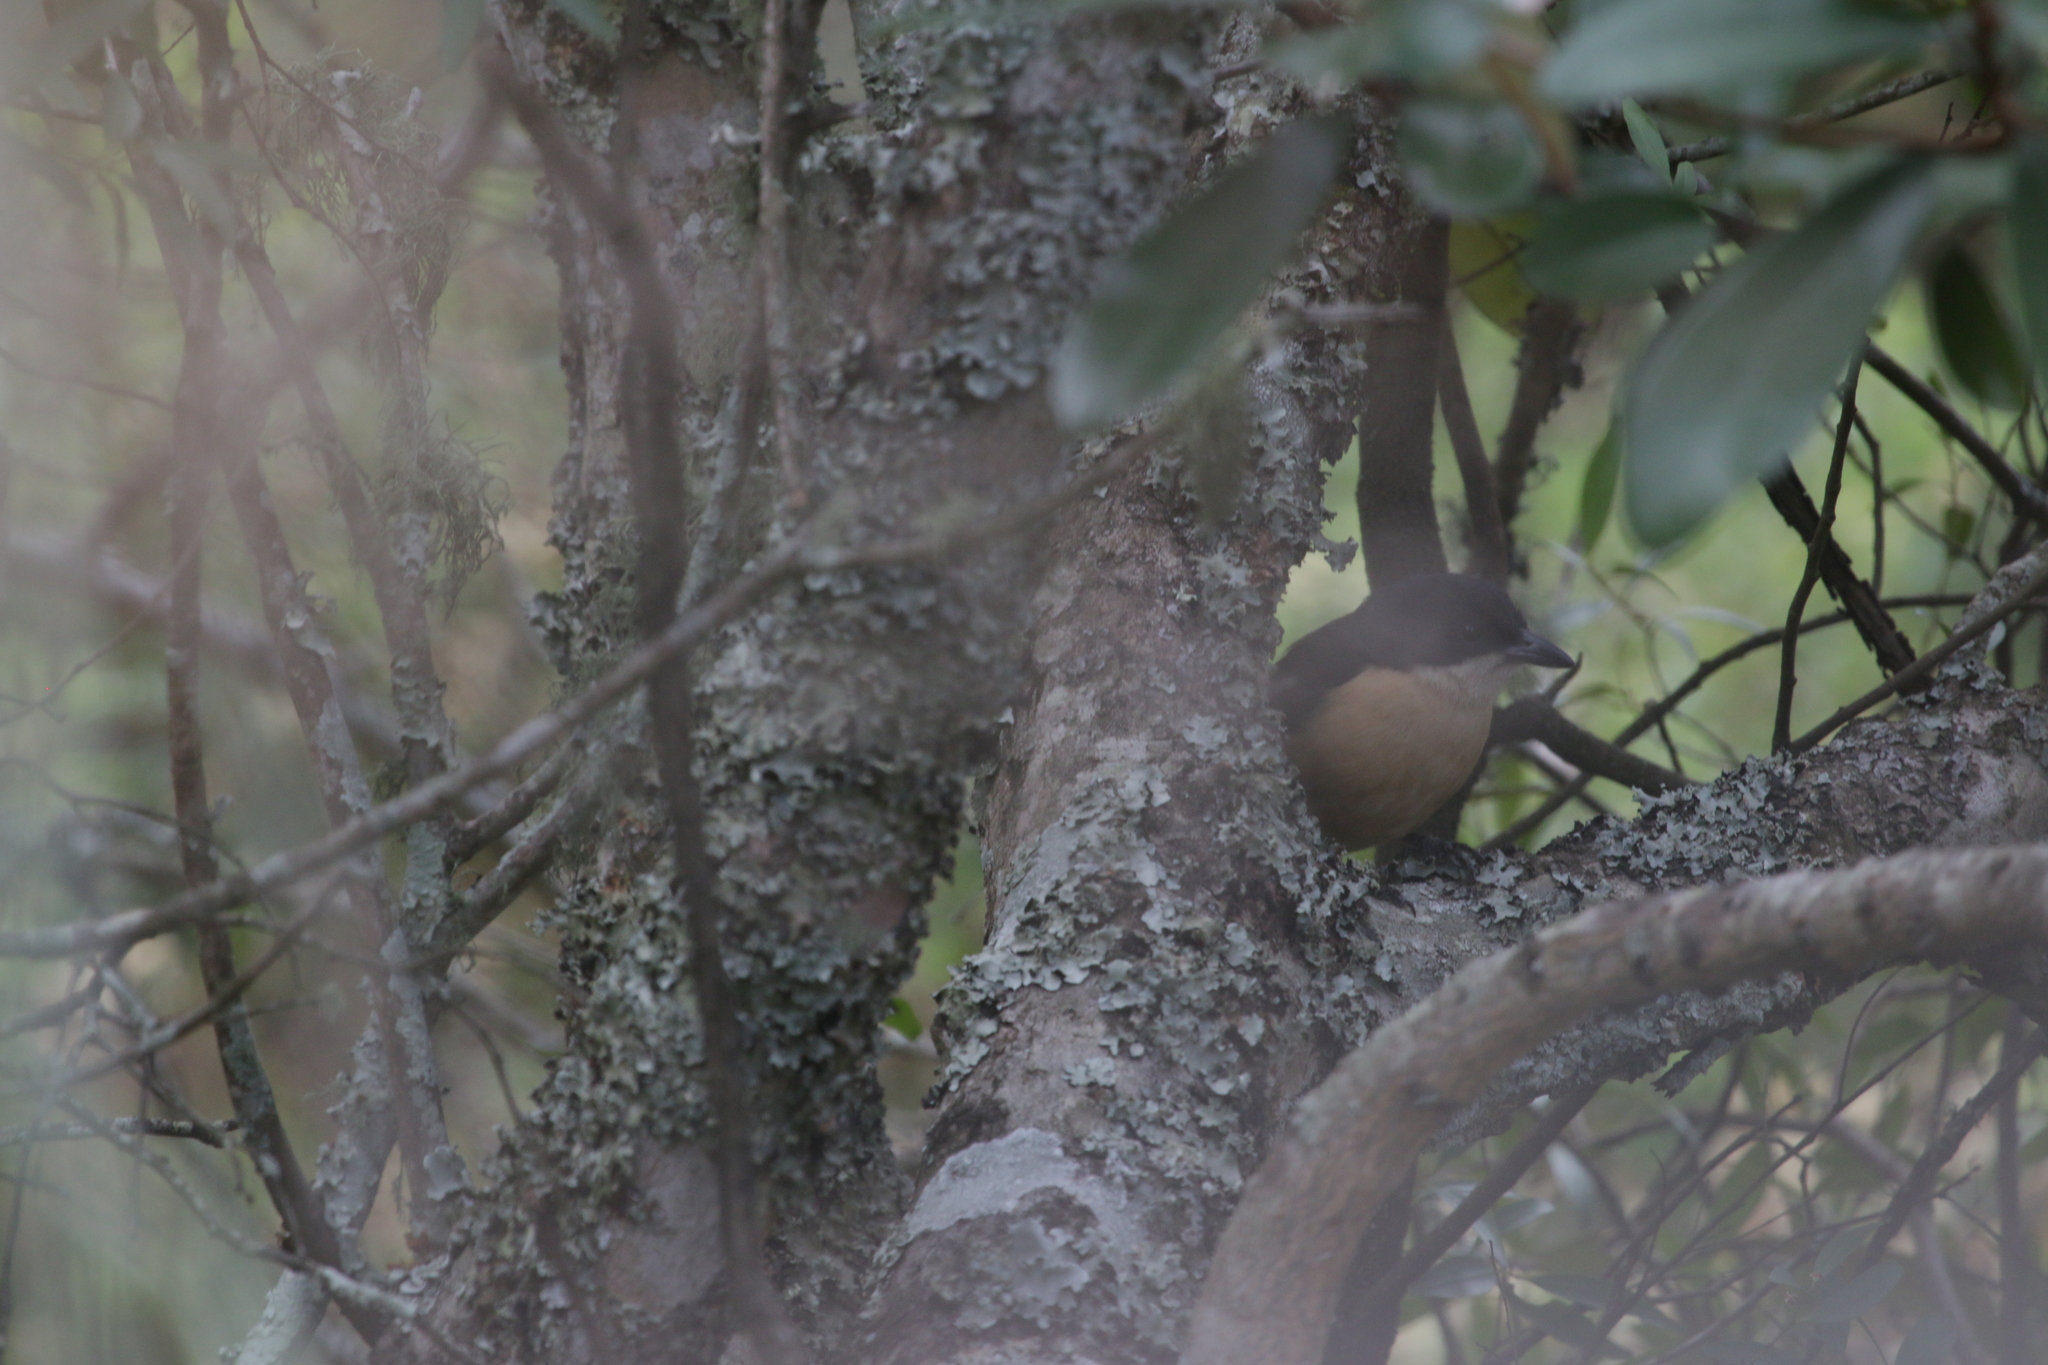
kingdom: Animalia
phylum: Chordata
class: Aves
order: Passeriformes
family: Malaconotidae
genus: Laniarius
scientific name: Laniarius ferrugineus
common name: Southern boubou
